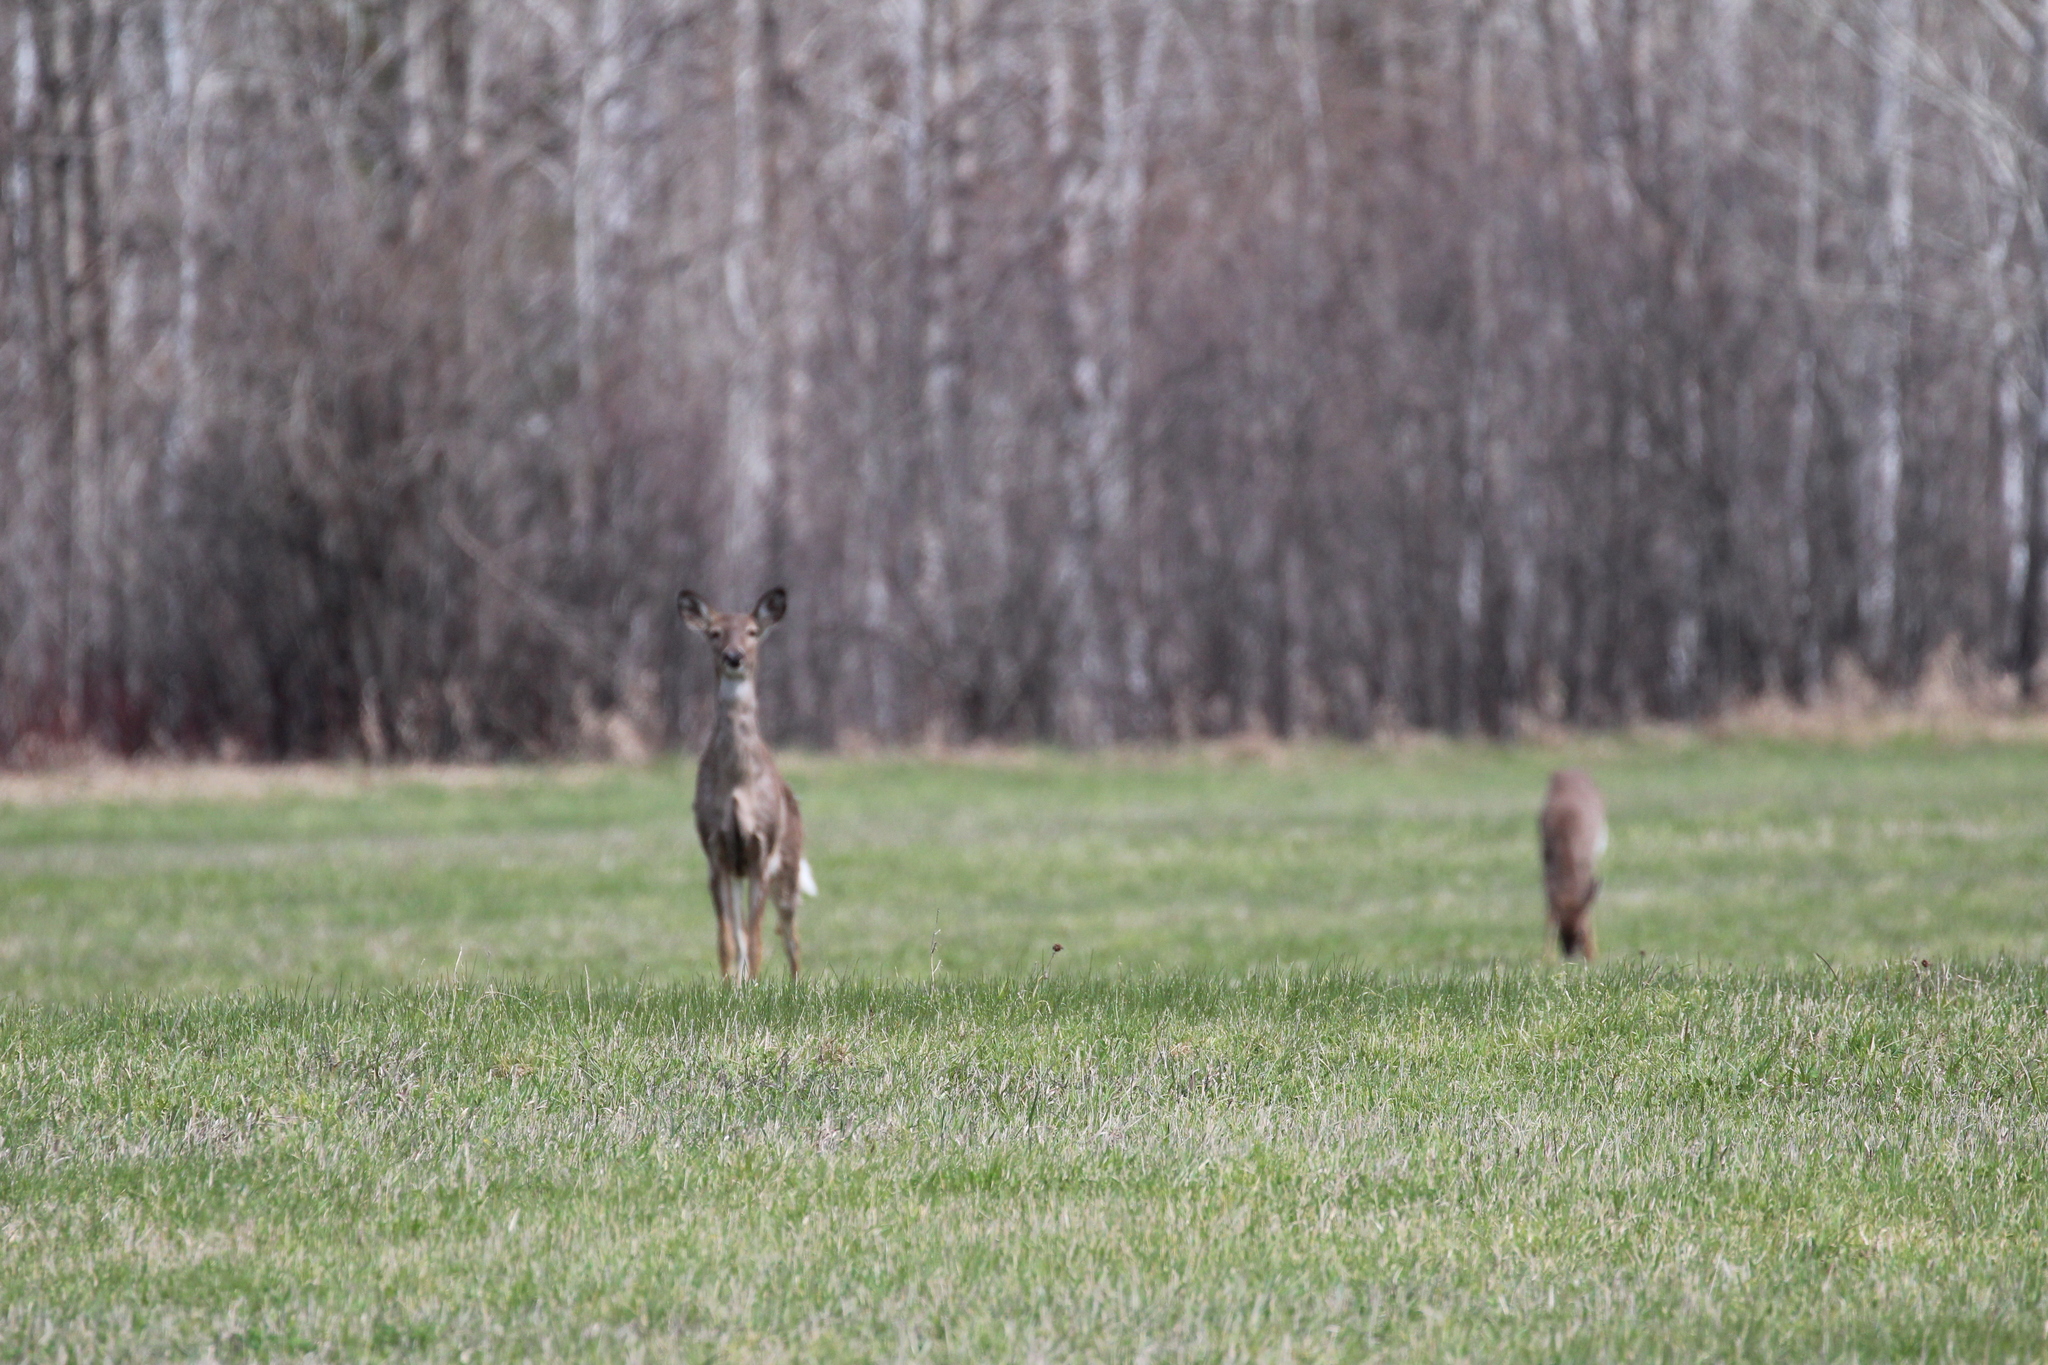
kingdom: Animalia
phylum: Chordata
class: Mammalia
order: Artiodactyla
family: Cervidae
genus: Odocoileus
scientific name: Odocoileus virginianus
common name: White-tailed deer
